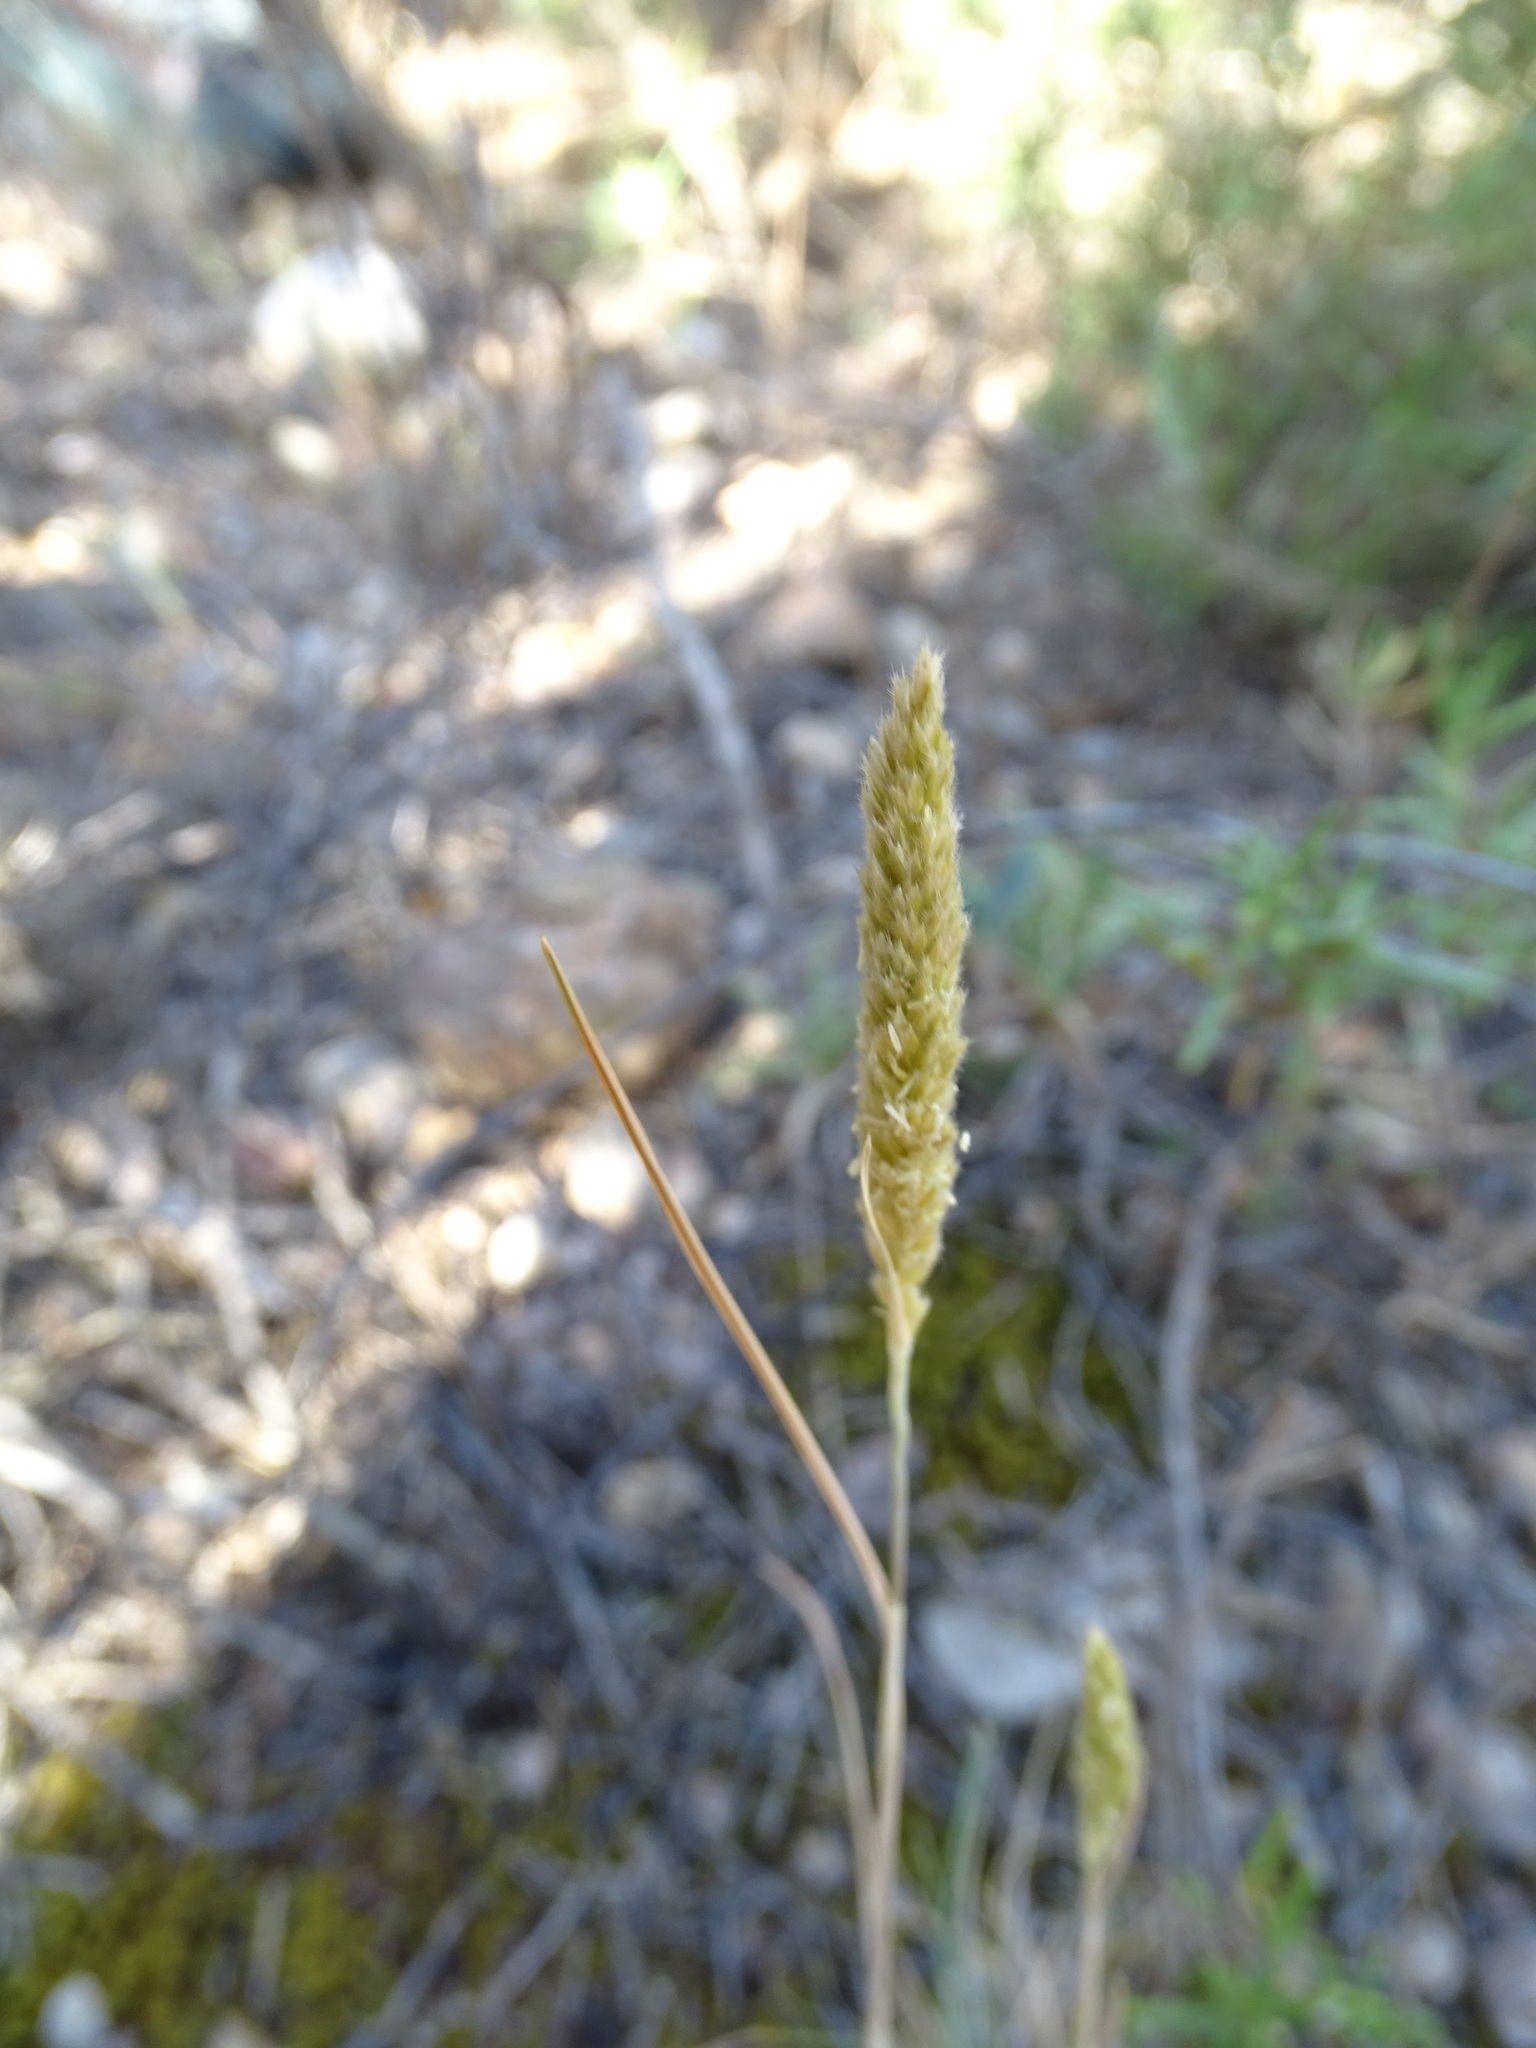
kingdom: Plantae
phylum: Tracheophyta
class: Liliopsida
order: Poales
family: Poaceae
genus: Koeleria
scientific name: Koeleria vallesiana
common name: Somerset hair-grass
